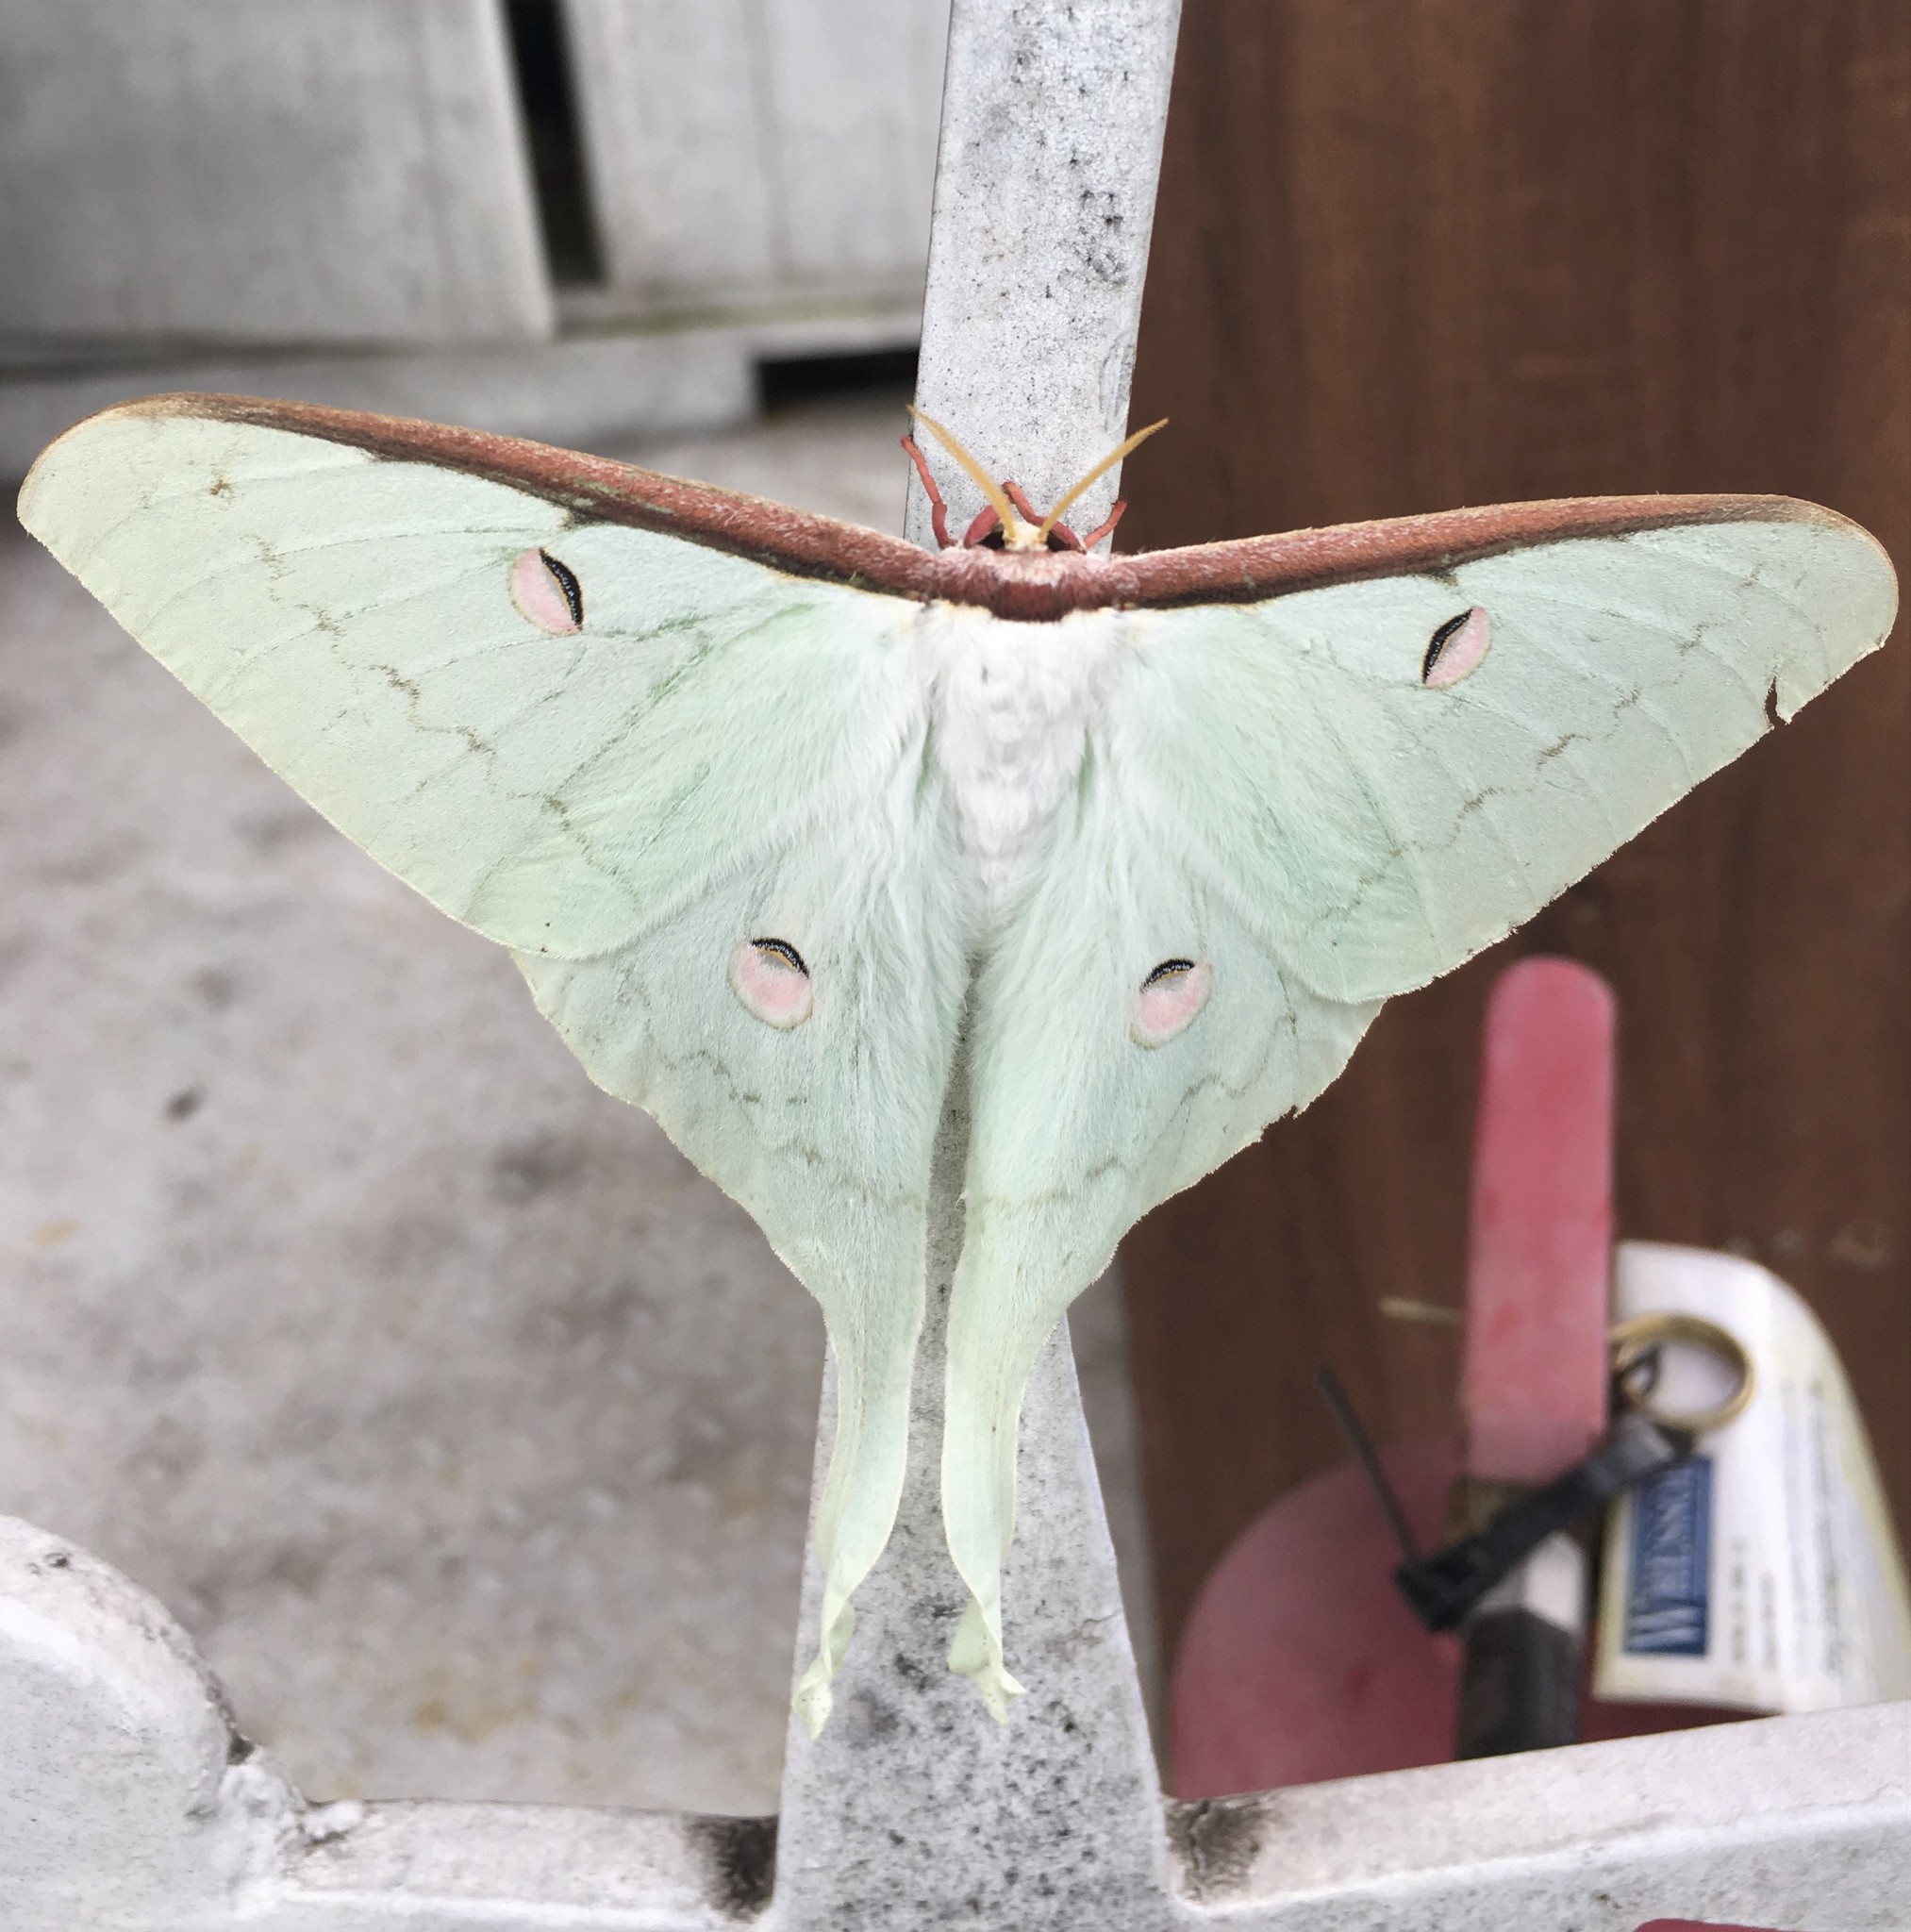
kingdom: Animalia
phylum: Arthropoda
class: Insecta
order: Lepidoptera
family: Saturniidae
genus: Actias
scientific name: Actias parasinensis
